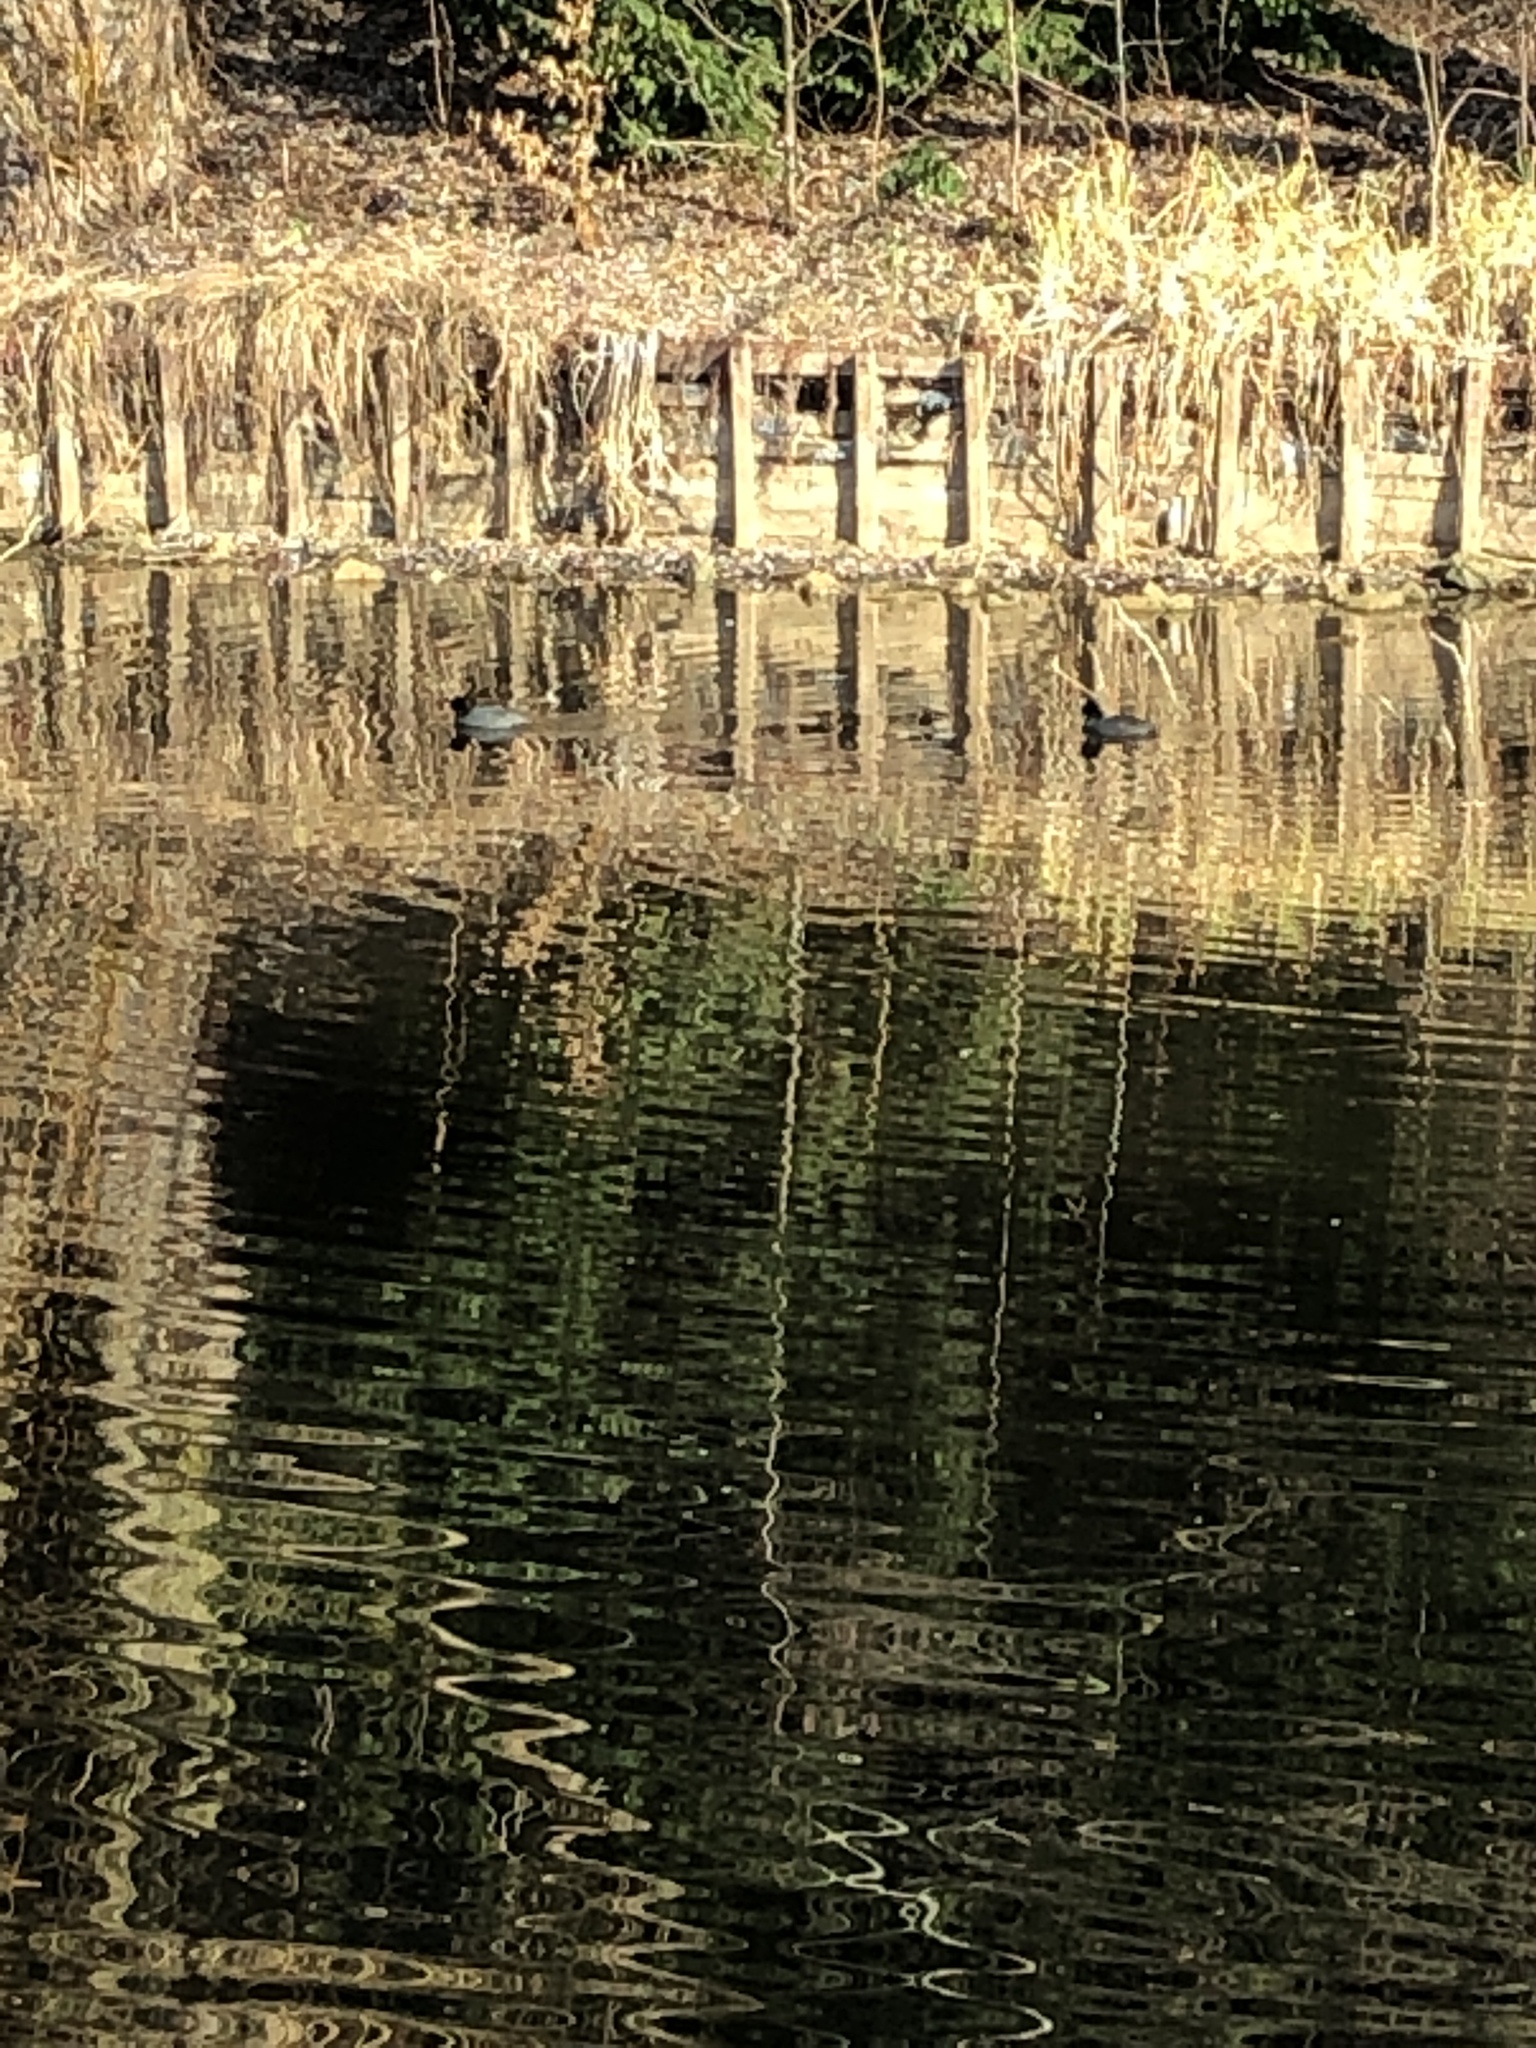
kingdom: Animalia
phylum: Chordata
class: Aves
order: Gruiformes
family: Rallidae
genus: Fulica
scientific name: Fulica atra
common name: Eurasian coot
